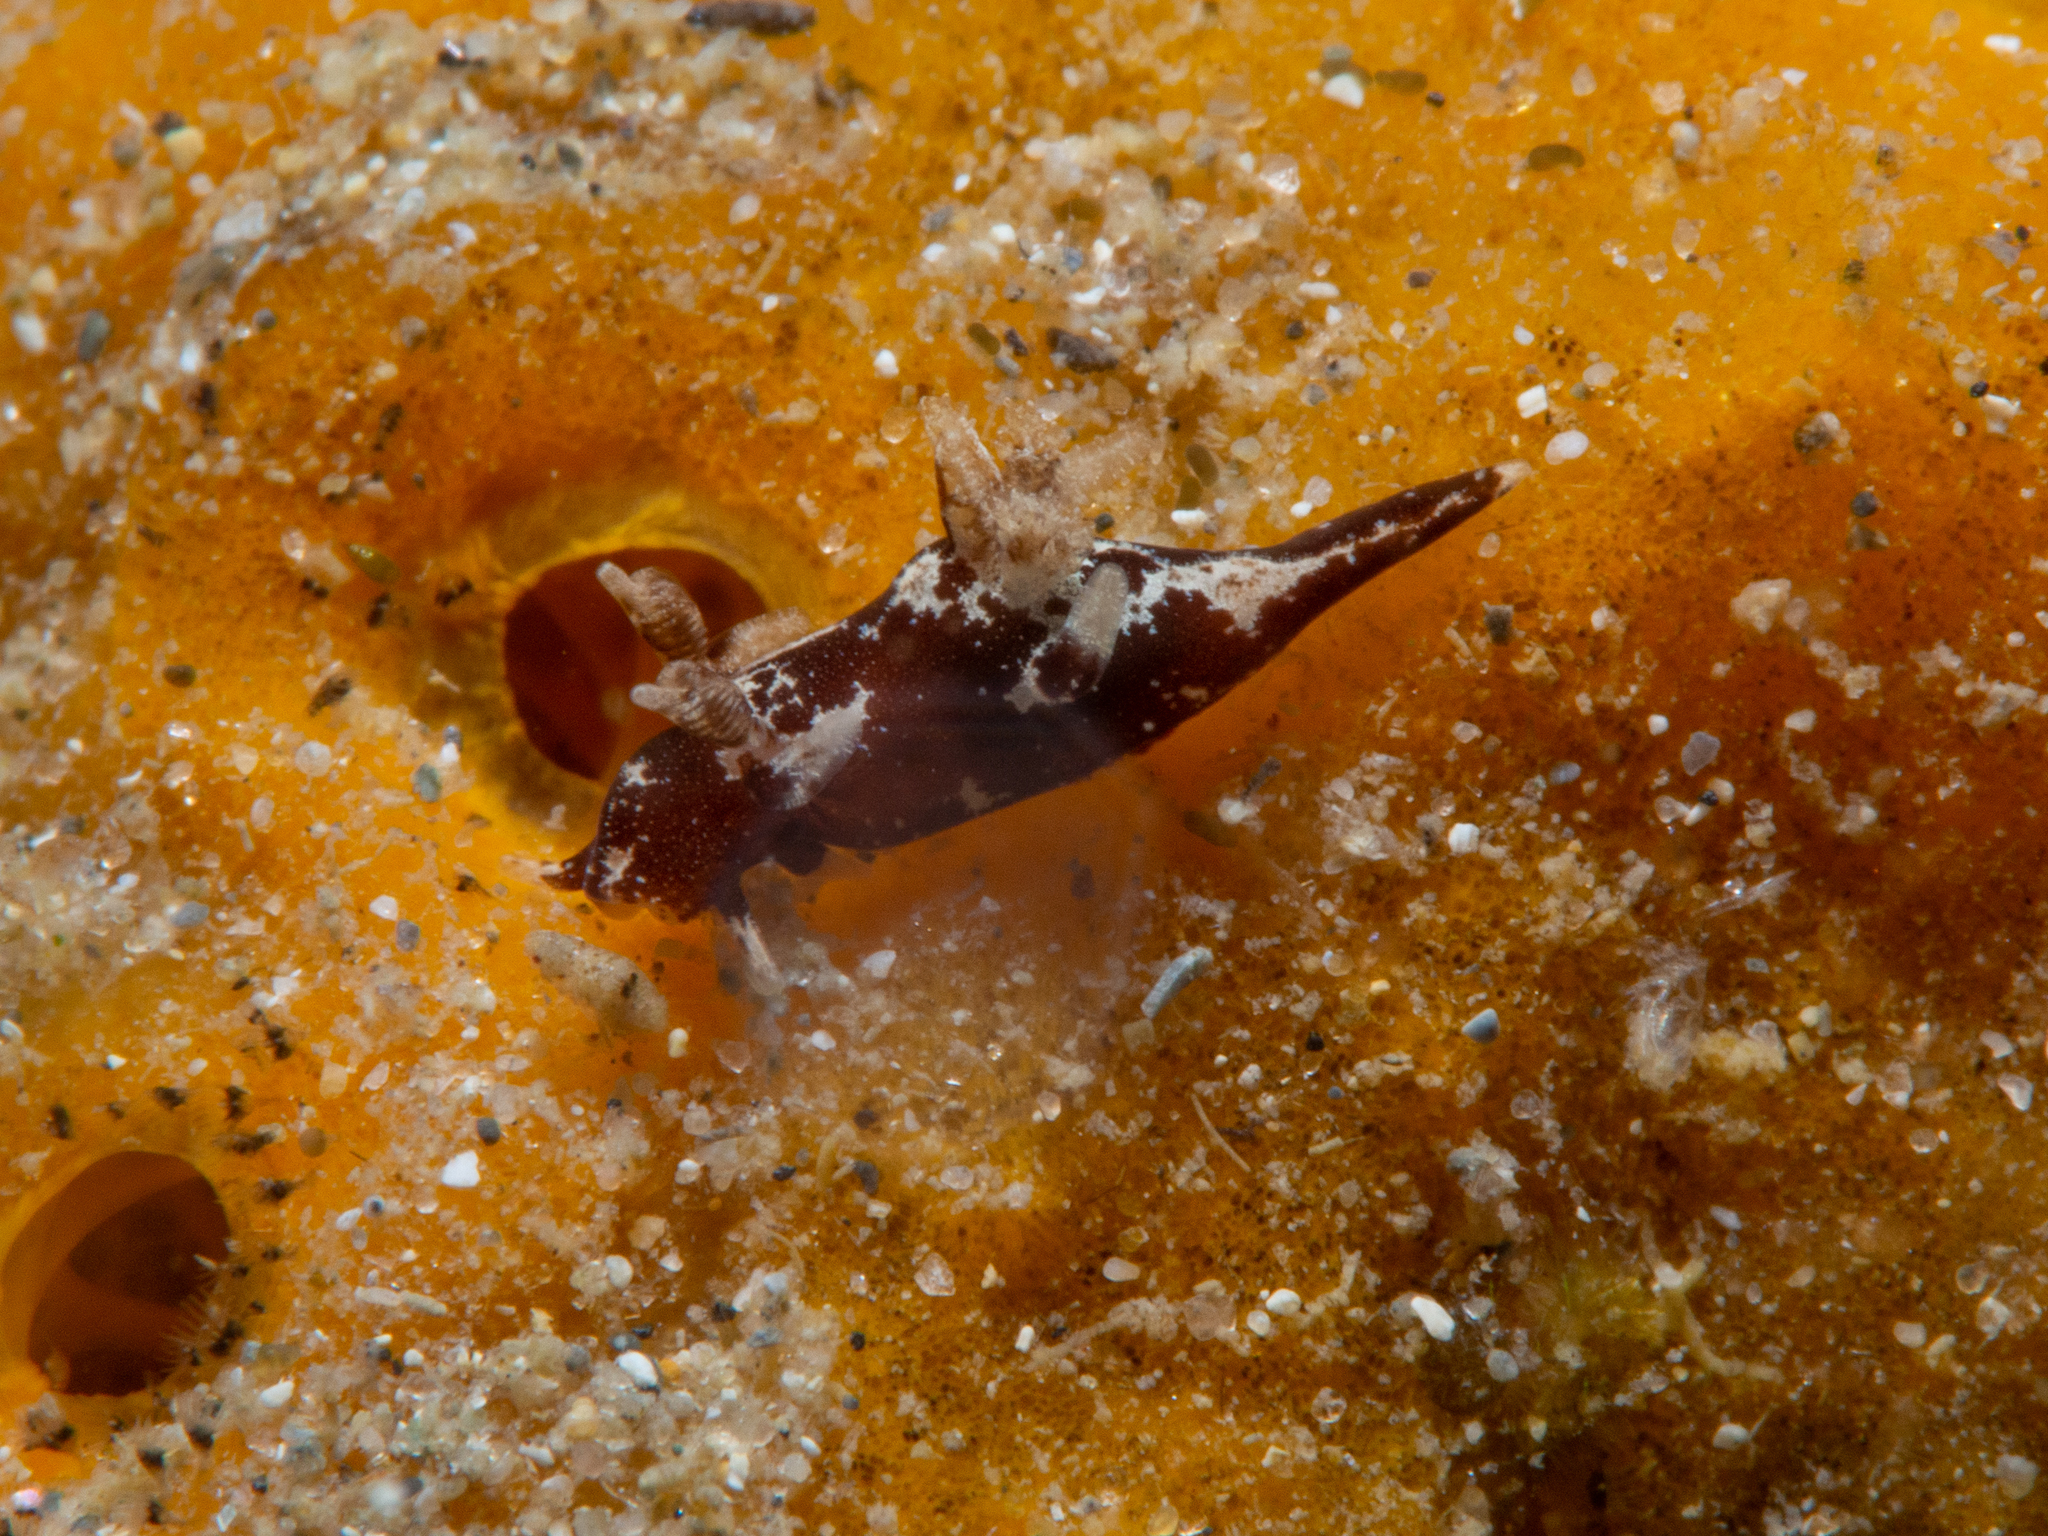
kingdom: Animalia
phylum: Mollusca
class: Gastropoda
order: Nudibranchia
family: Goniodorididae
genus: Trapania
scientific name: Trapania brunnea
